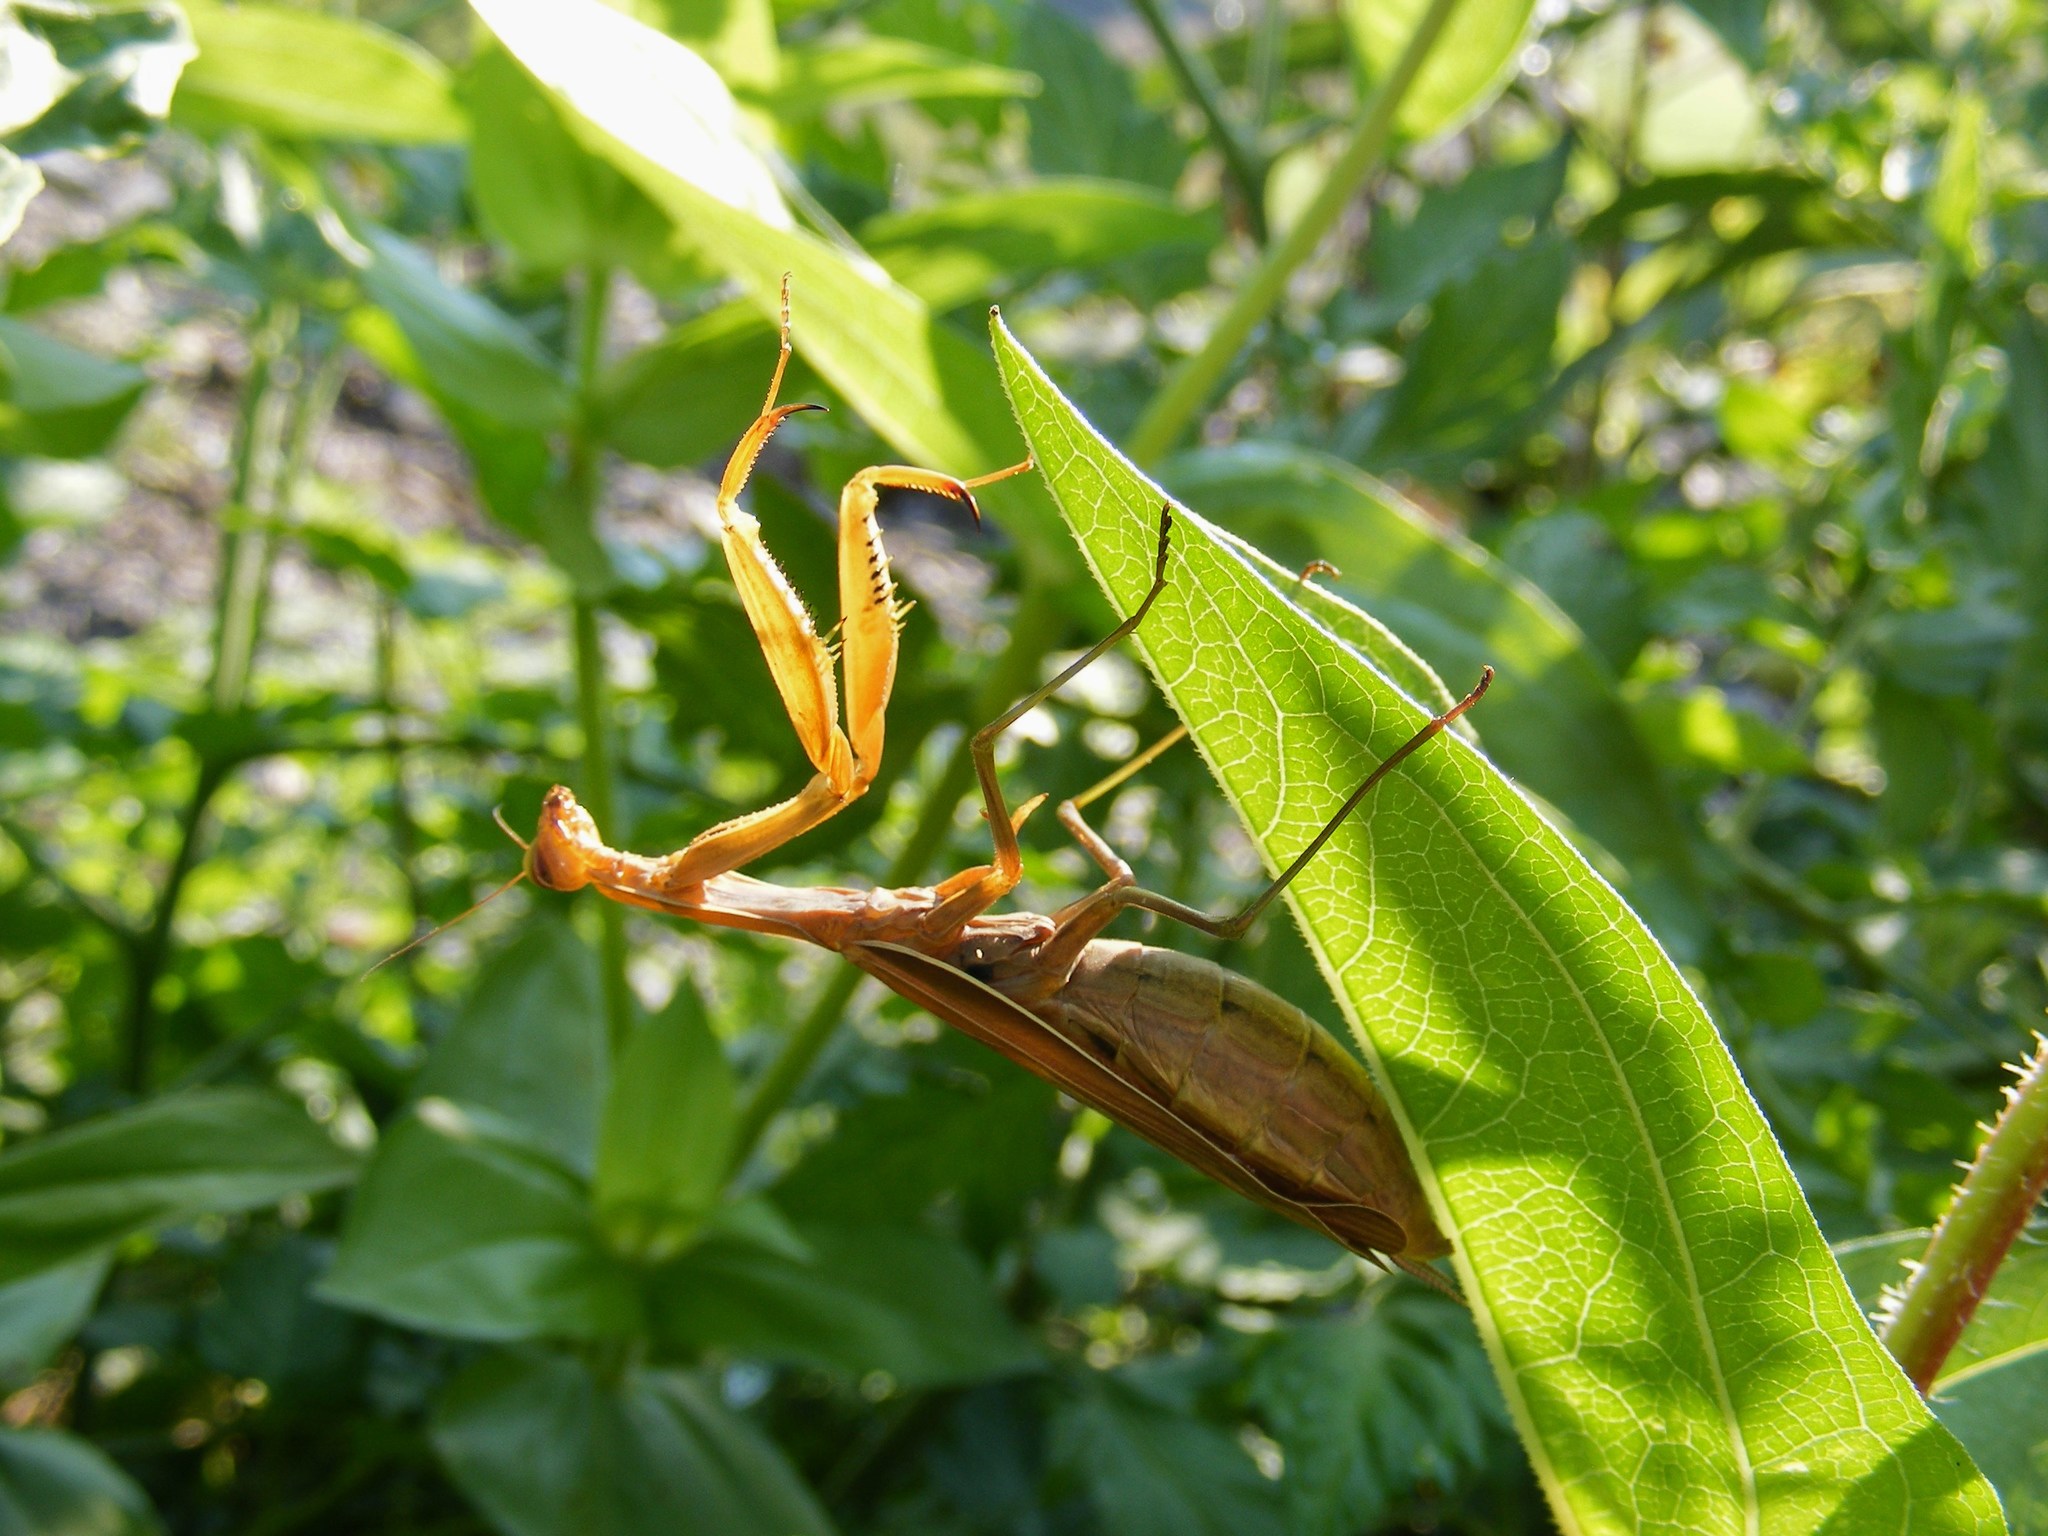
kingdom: Animalia
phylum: Arthropoda
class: Insecta
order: Mantodea
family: Mantidae
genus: Mantis
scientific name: Mantis religiosa
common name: Praying mantis
